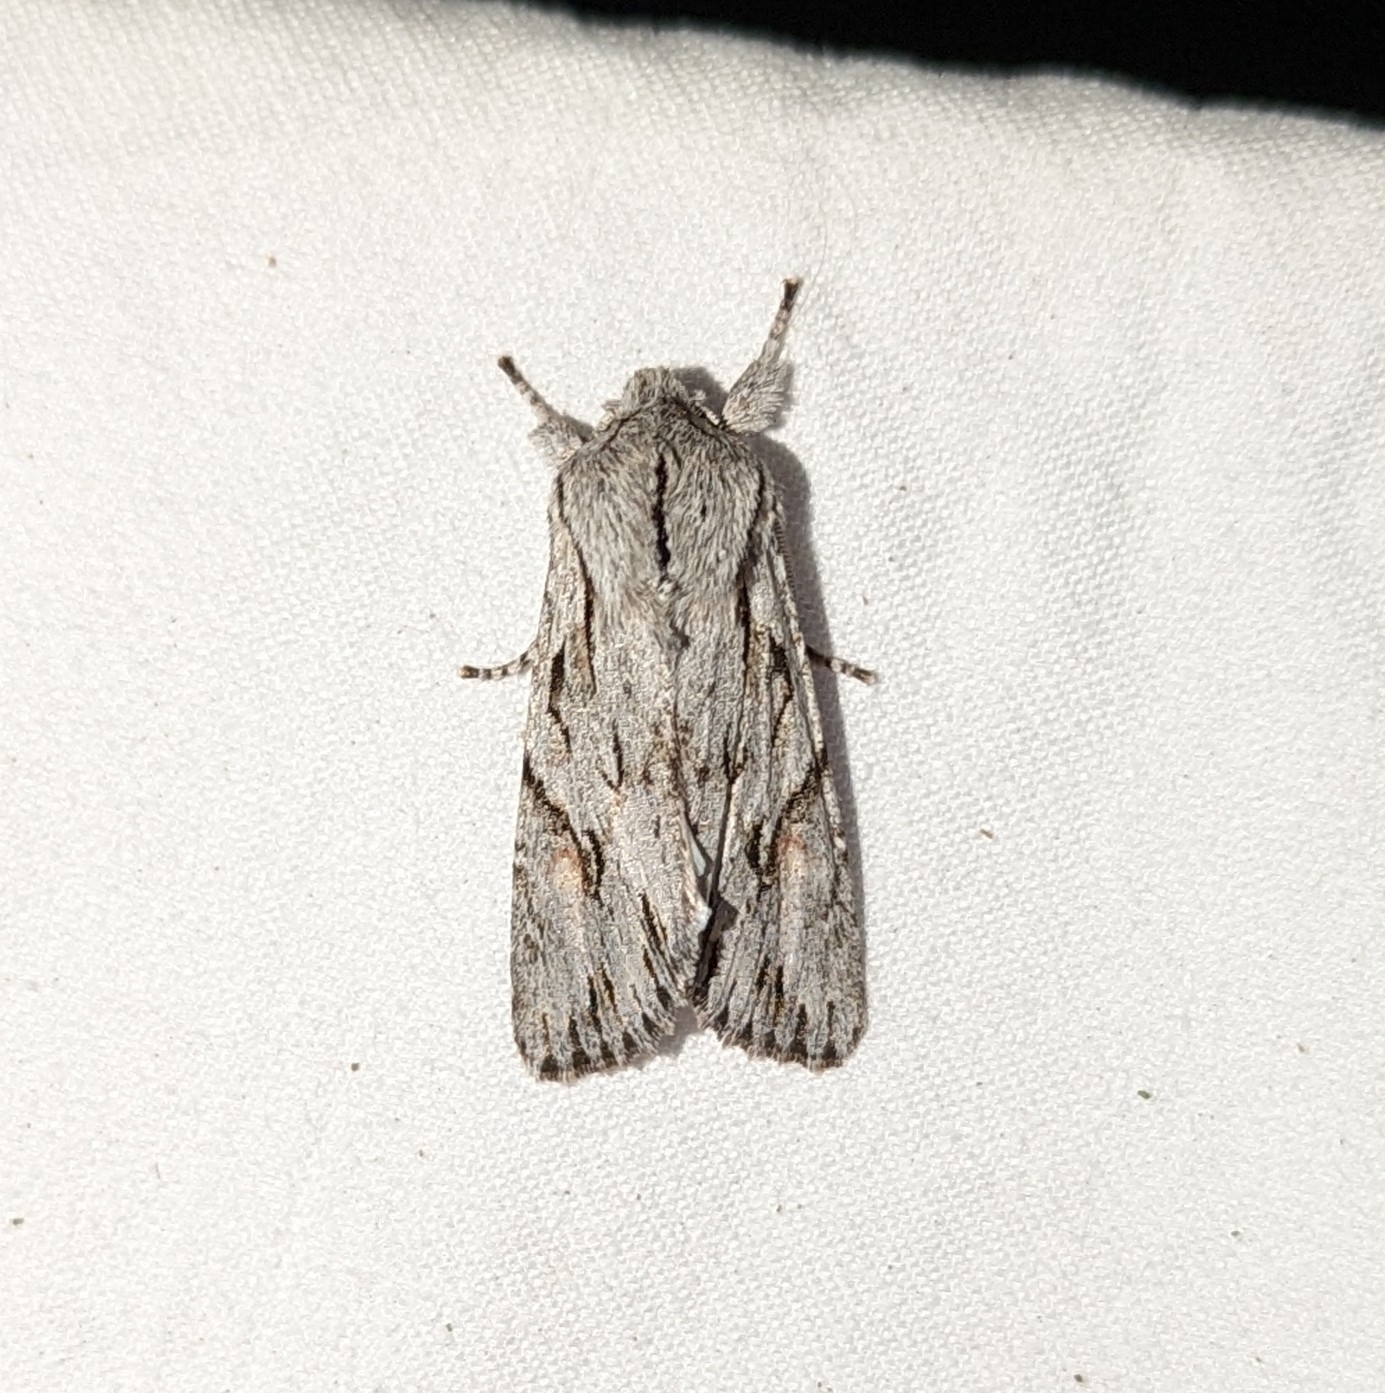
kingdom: Animalia
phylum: Arthropoda
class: Insecta
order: Lepidoptera
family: Noctuidae
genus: Egira
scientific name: Egira crucialis
